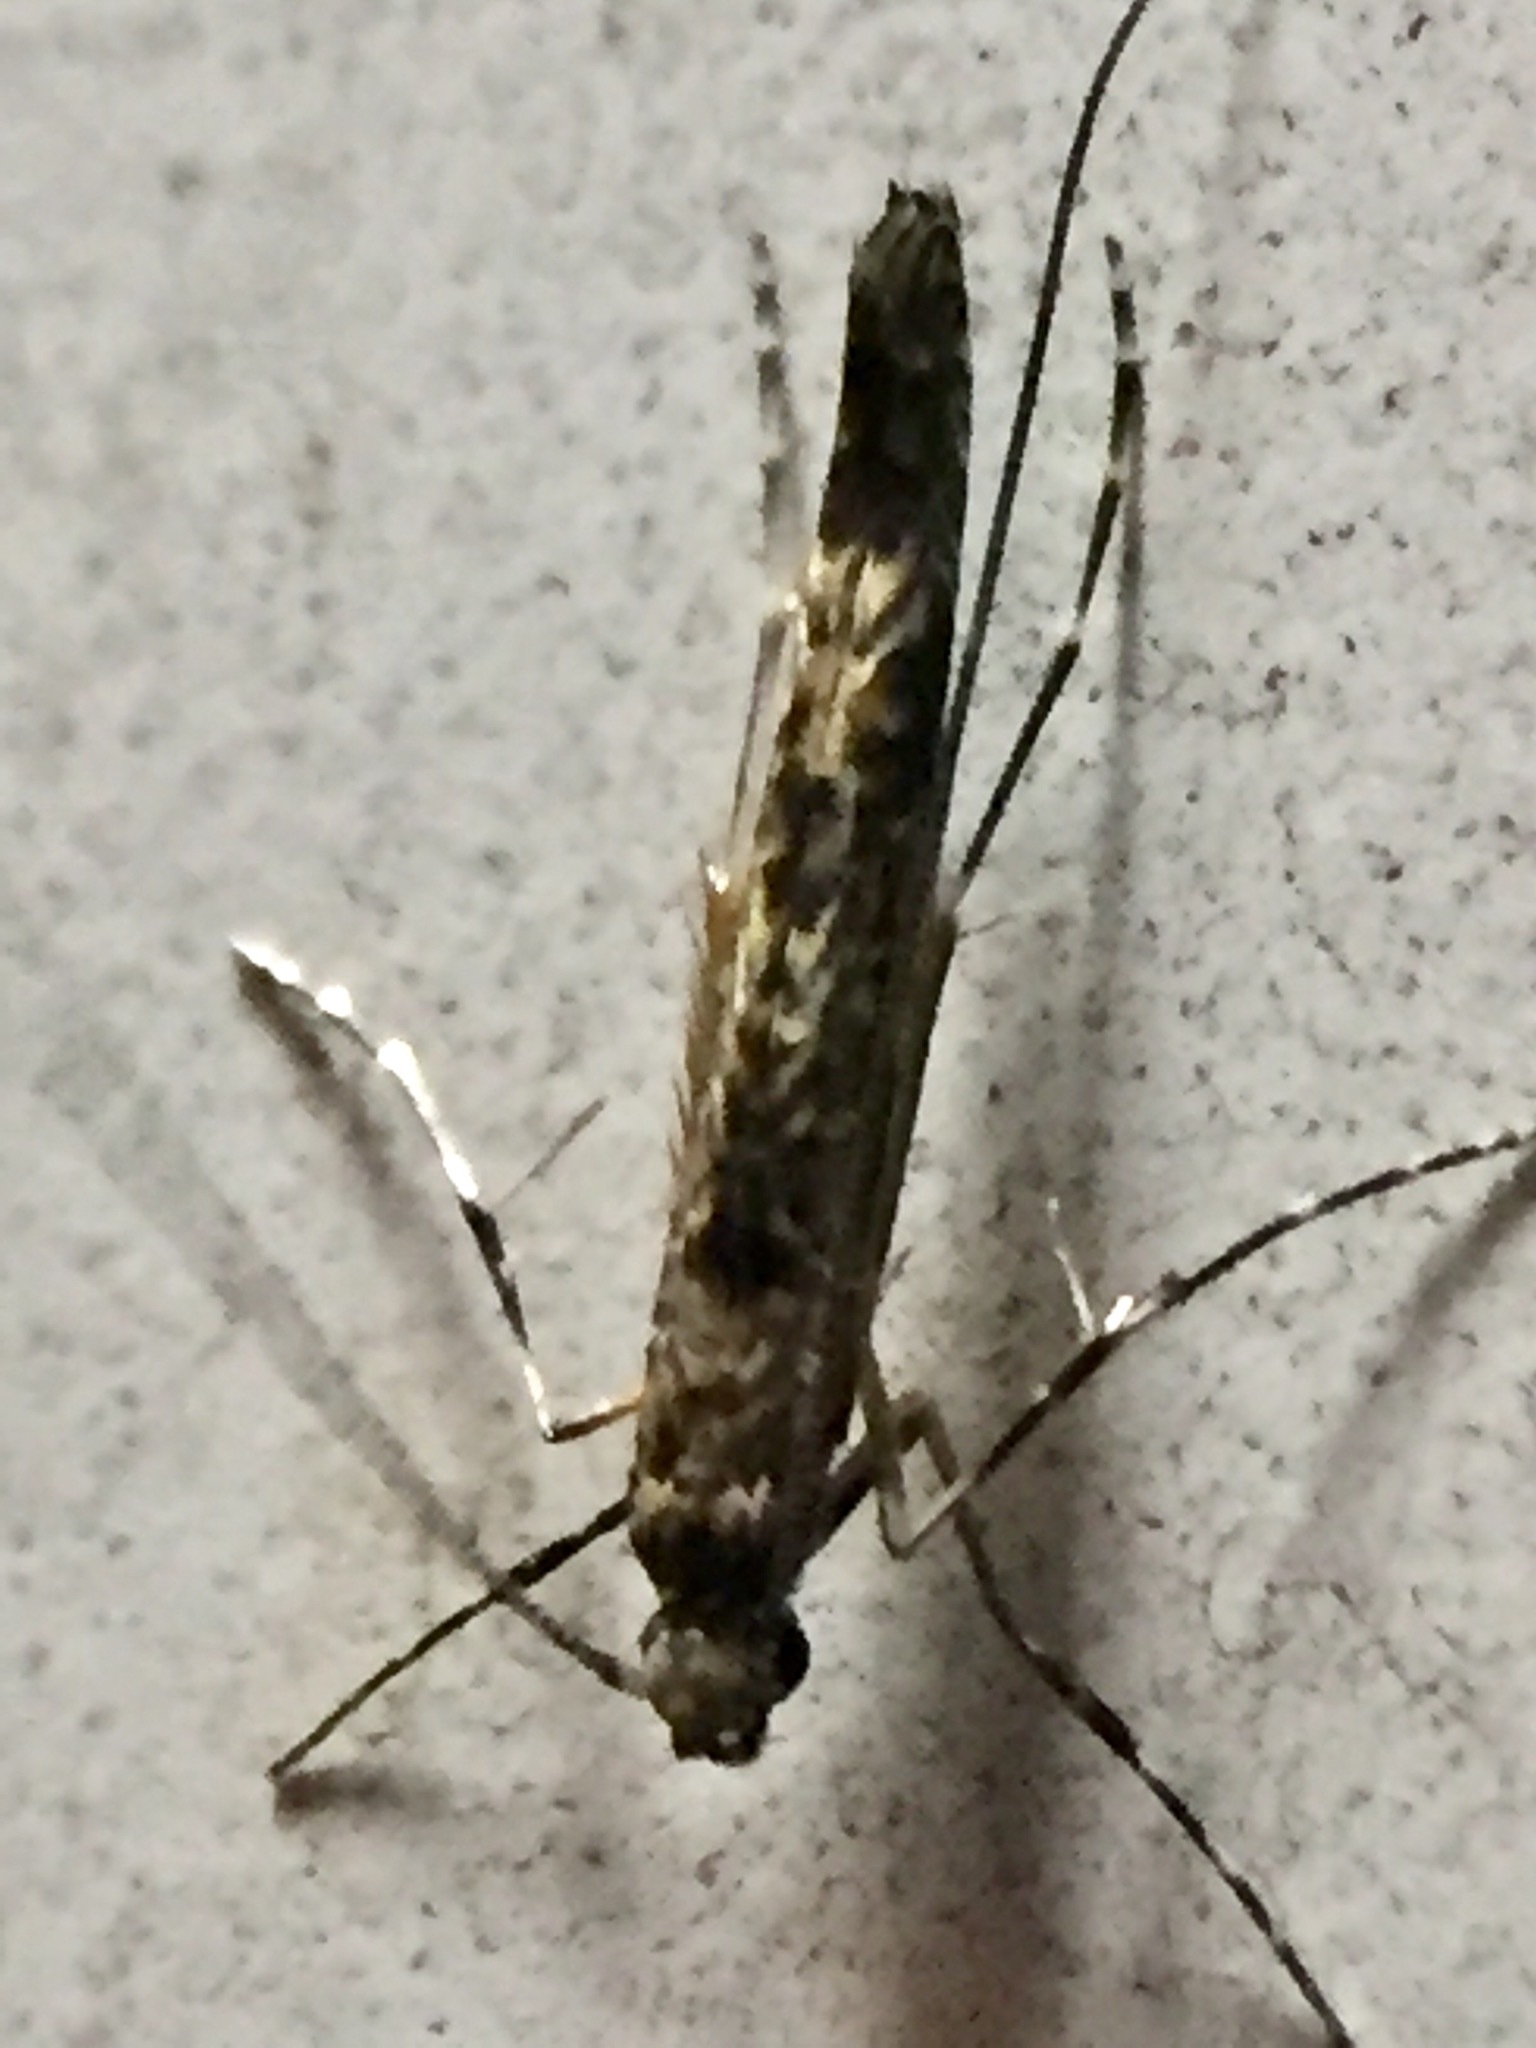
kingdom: Animalia
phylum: Arthropoda
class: Insecta
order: Lepidoptera
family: Gracillariidae
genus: Conopomorpha
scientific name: Conopomorpha cyanospila
